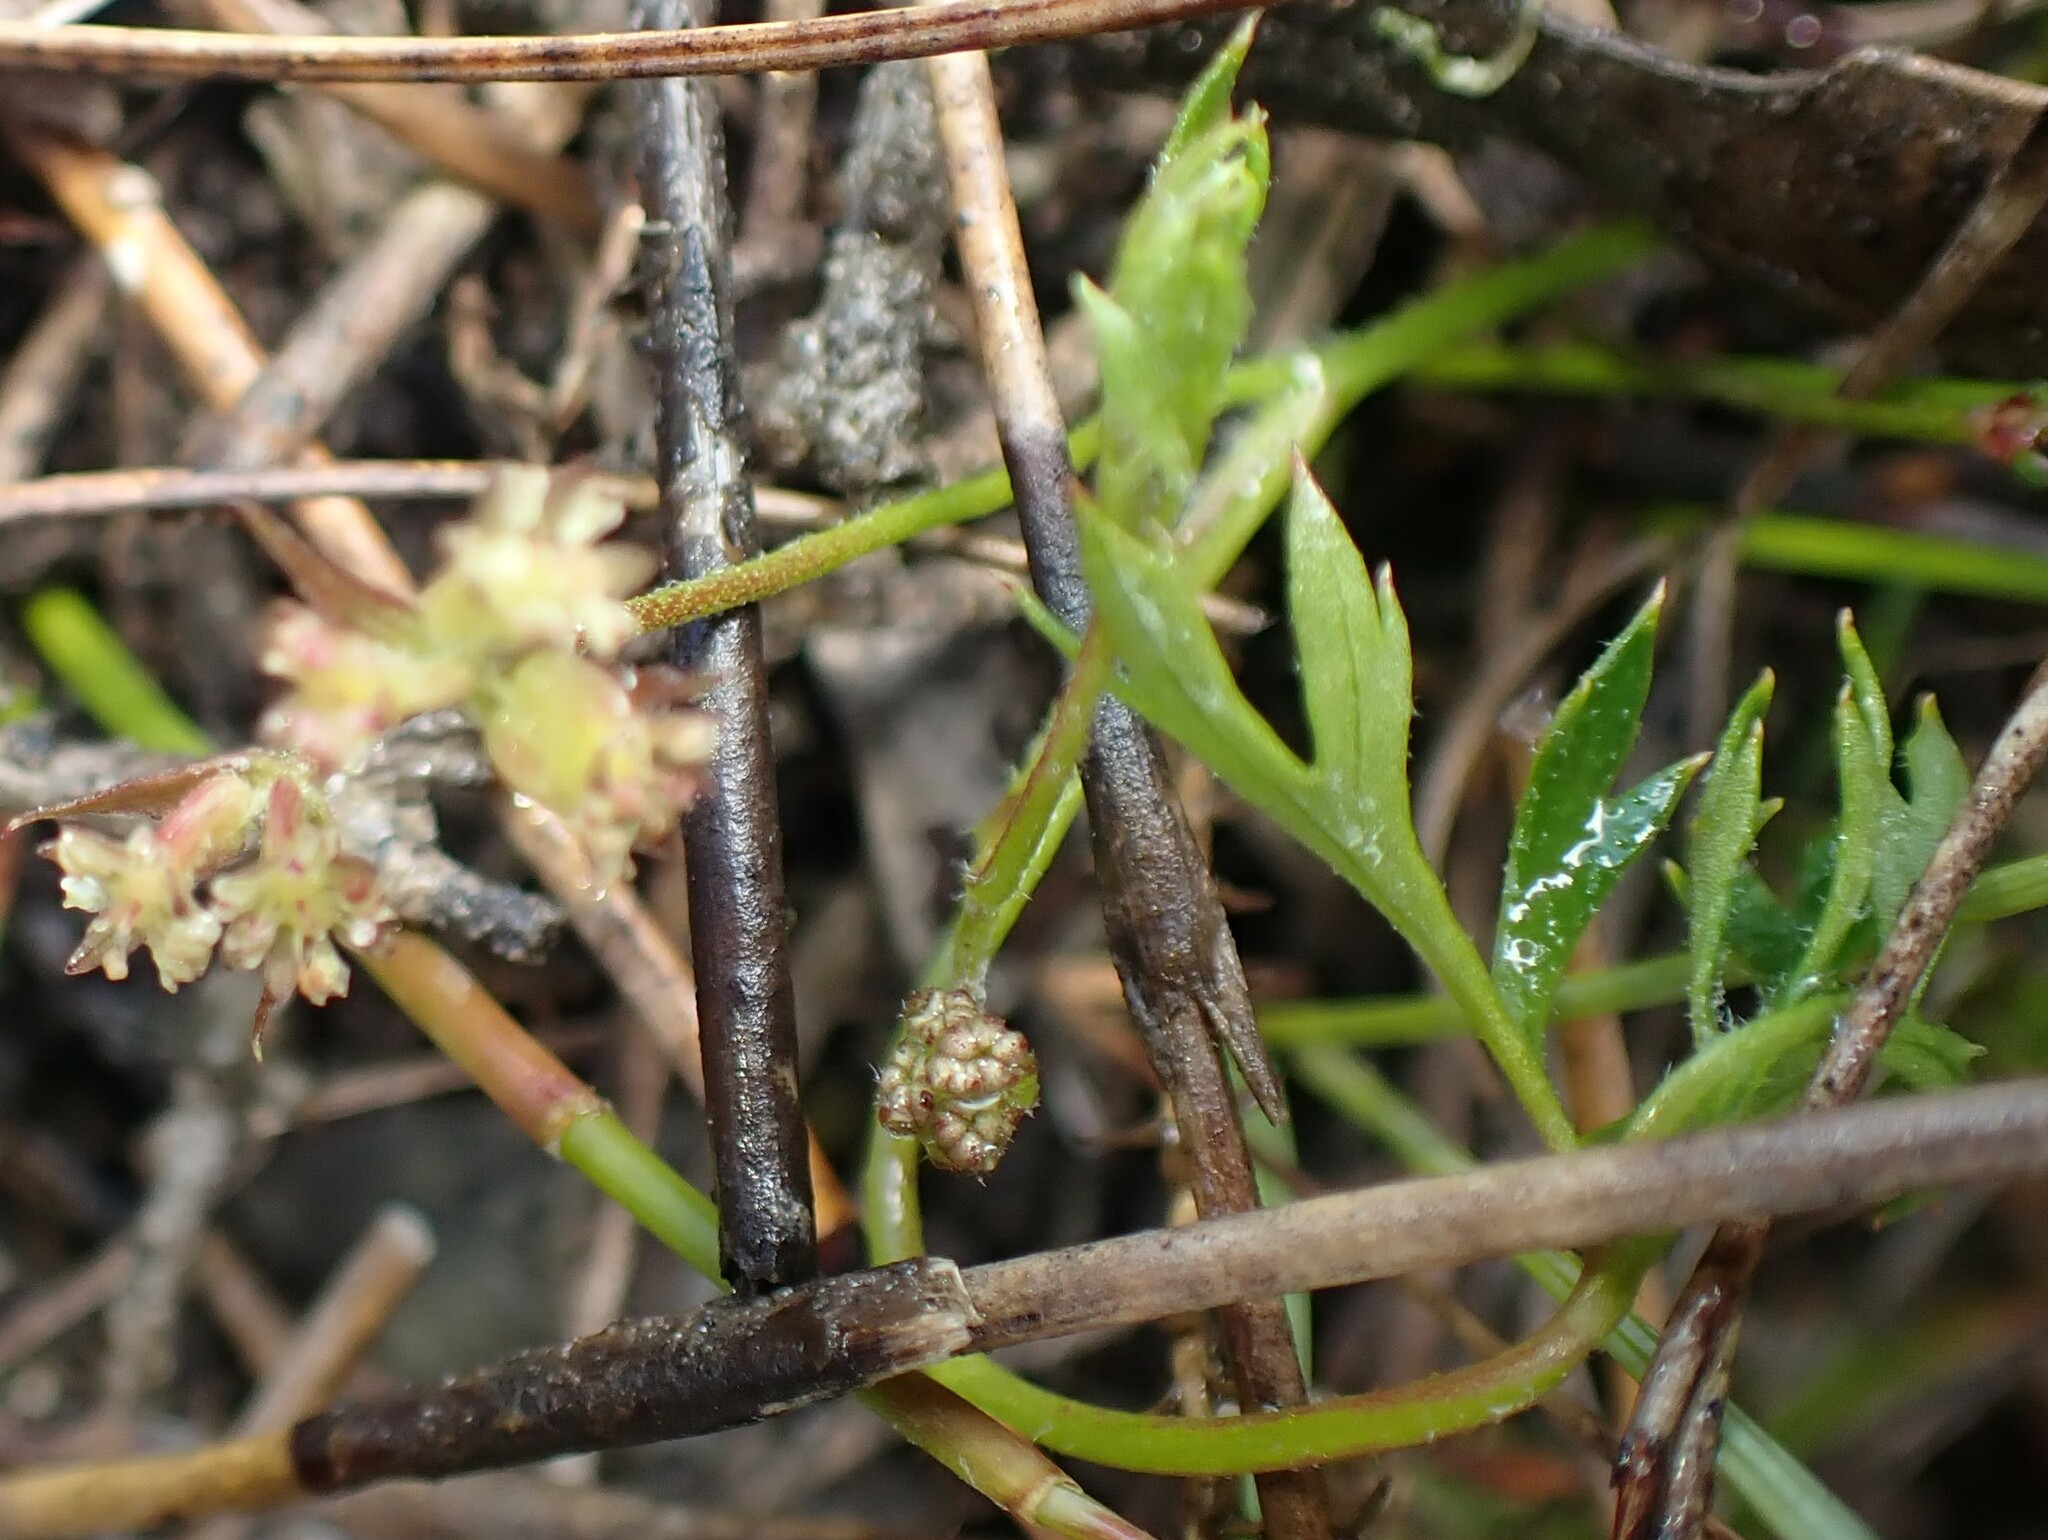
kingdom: Plantae
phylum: Tracheophyta
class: Magnoliopsida
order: Apiales
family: Apiaceae
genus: Xanthosia
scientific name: Xanthosia dissecta
